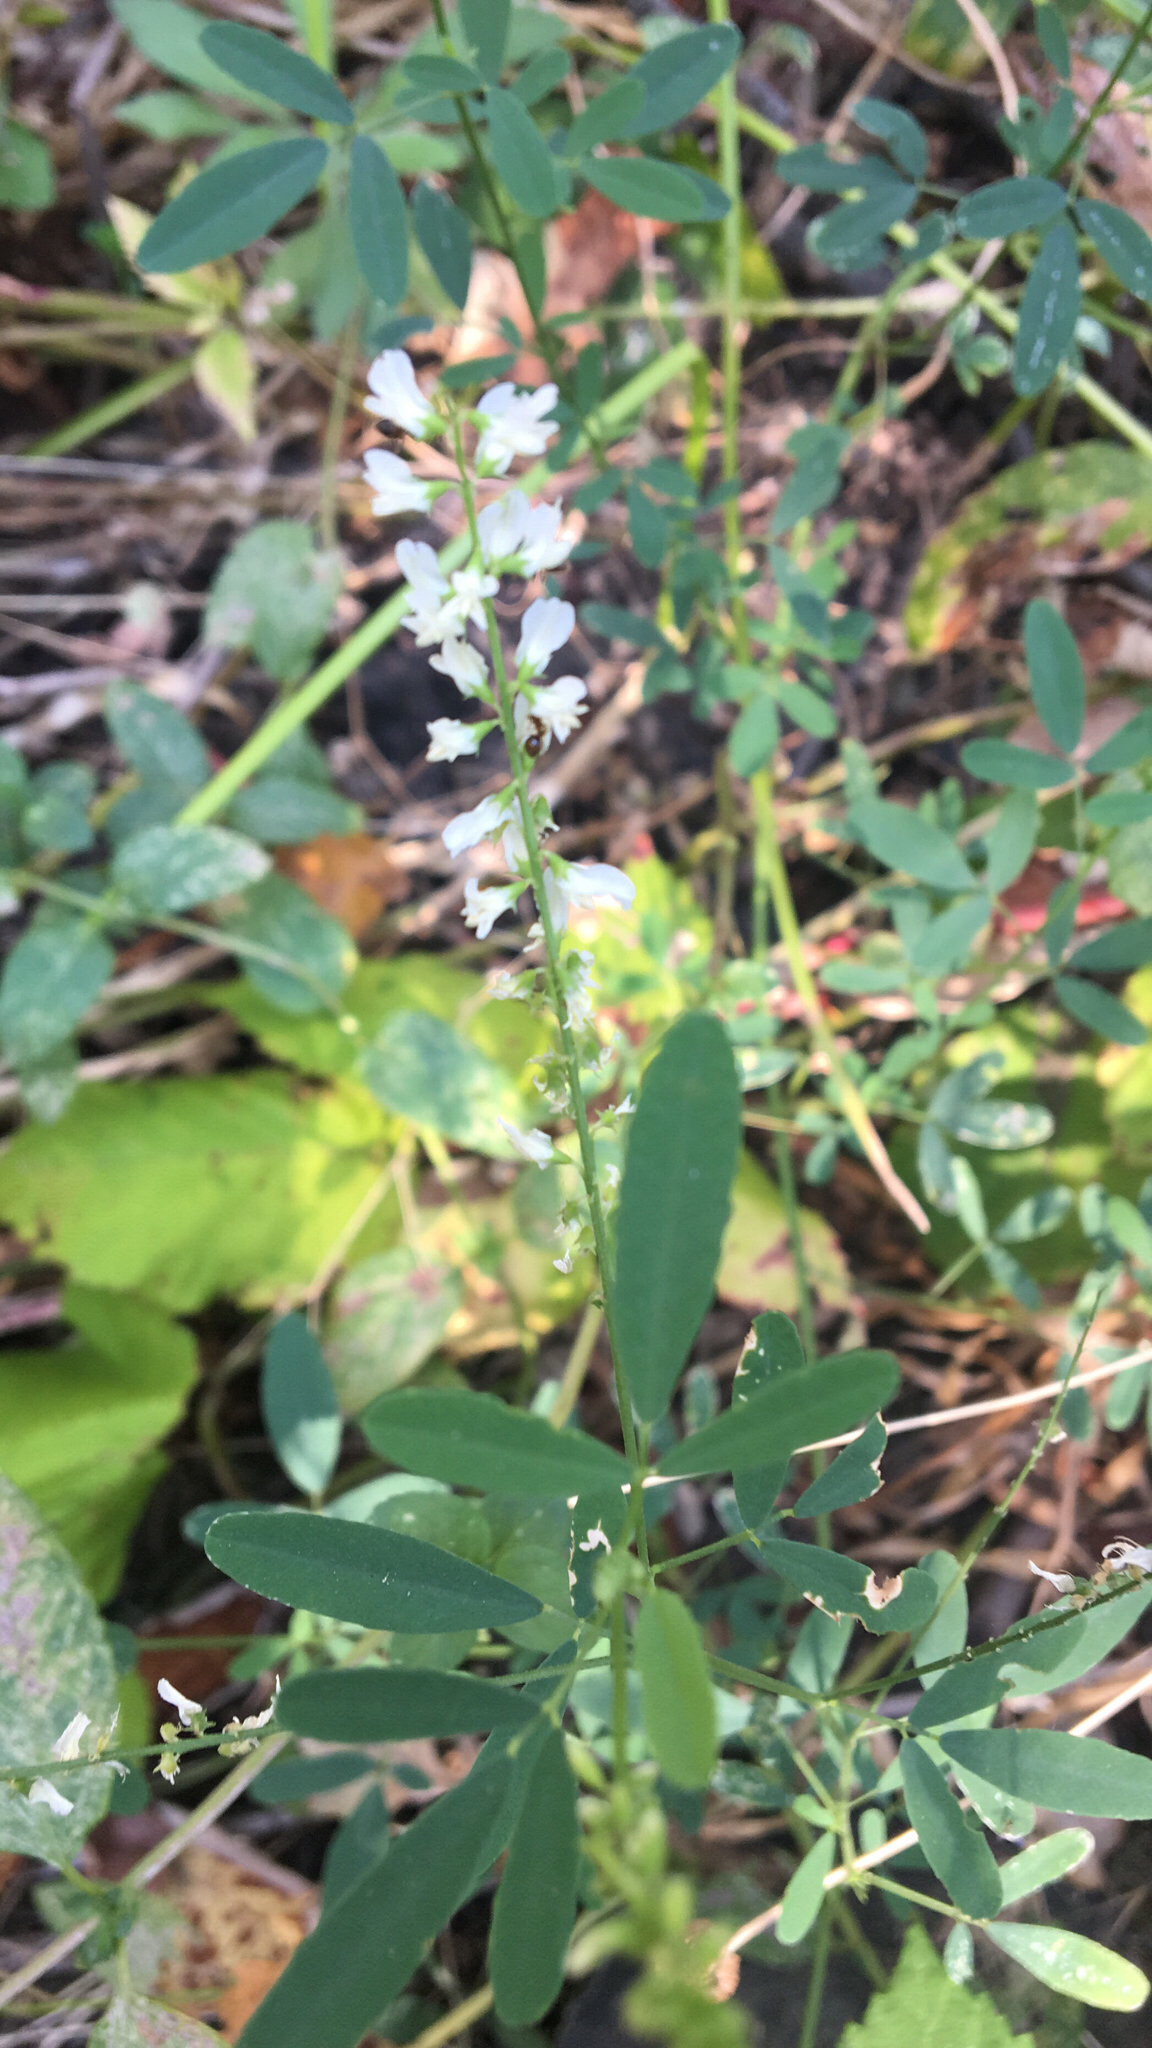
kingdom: Plantae
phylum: Tracheophyta
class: Magnoliopsida
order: Fabales
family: Fabaceae
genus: Melilotus
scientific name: Melilotus albus
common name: White melilot
